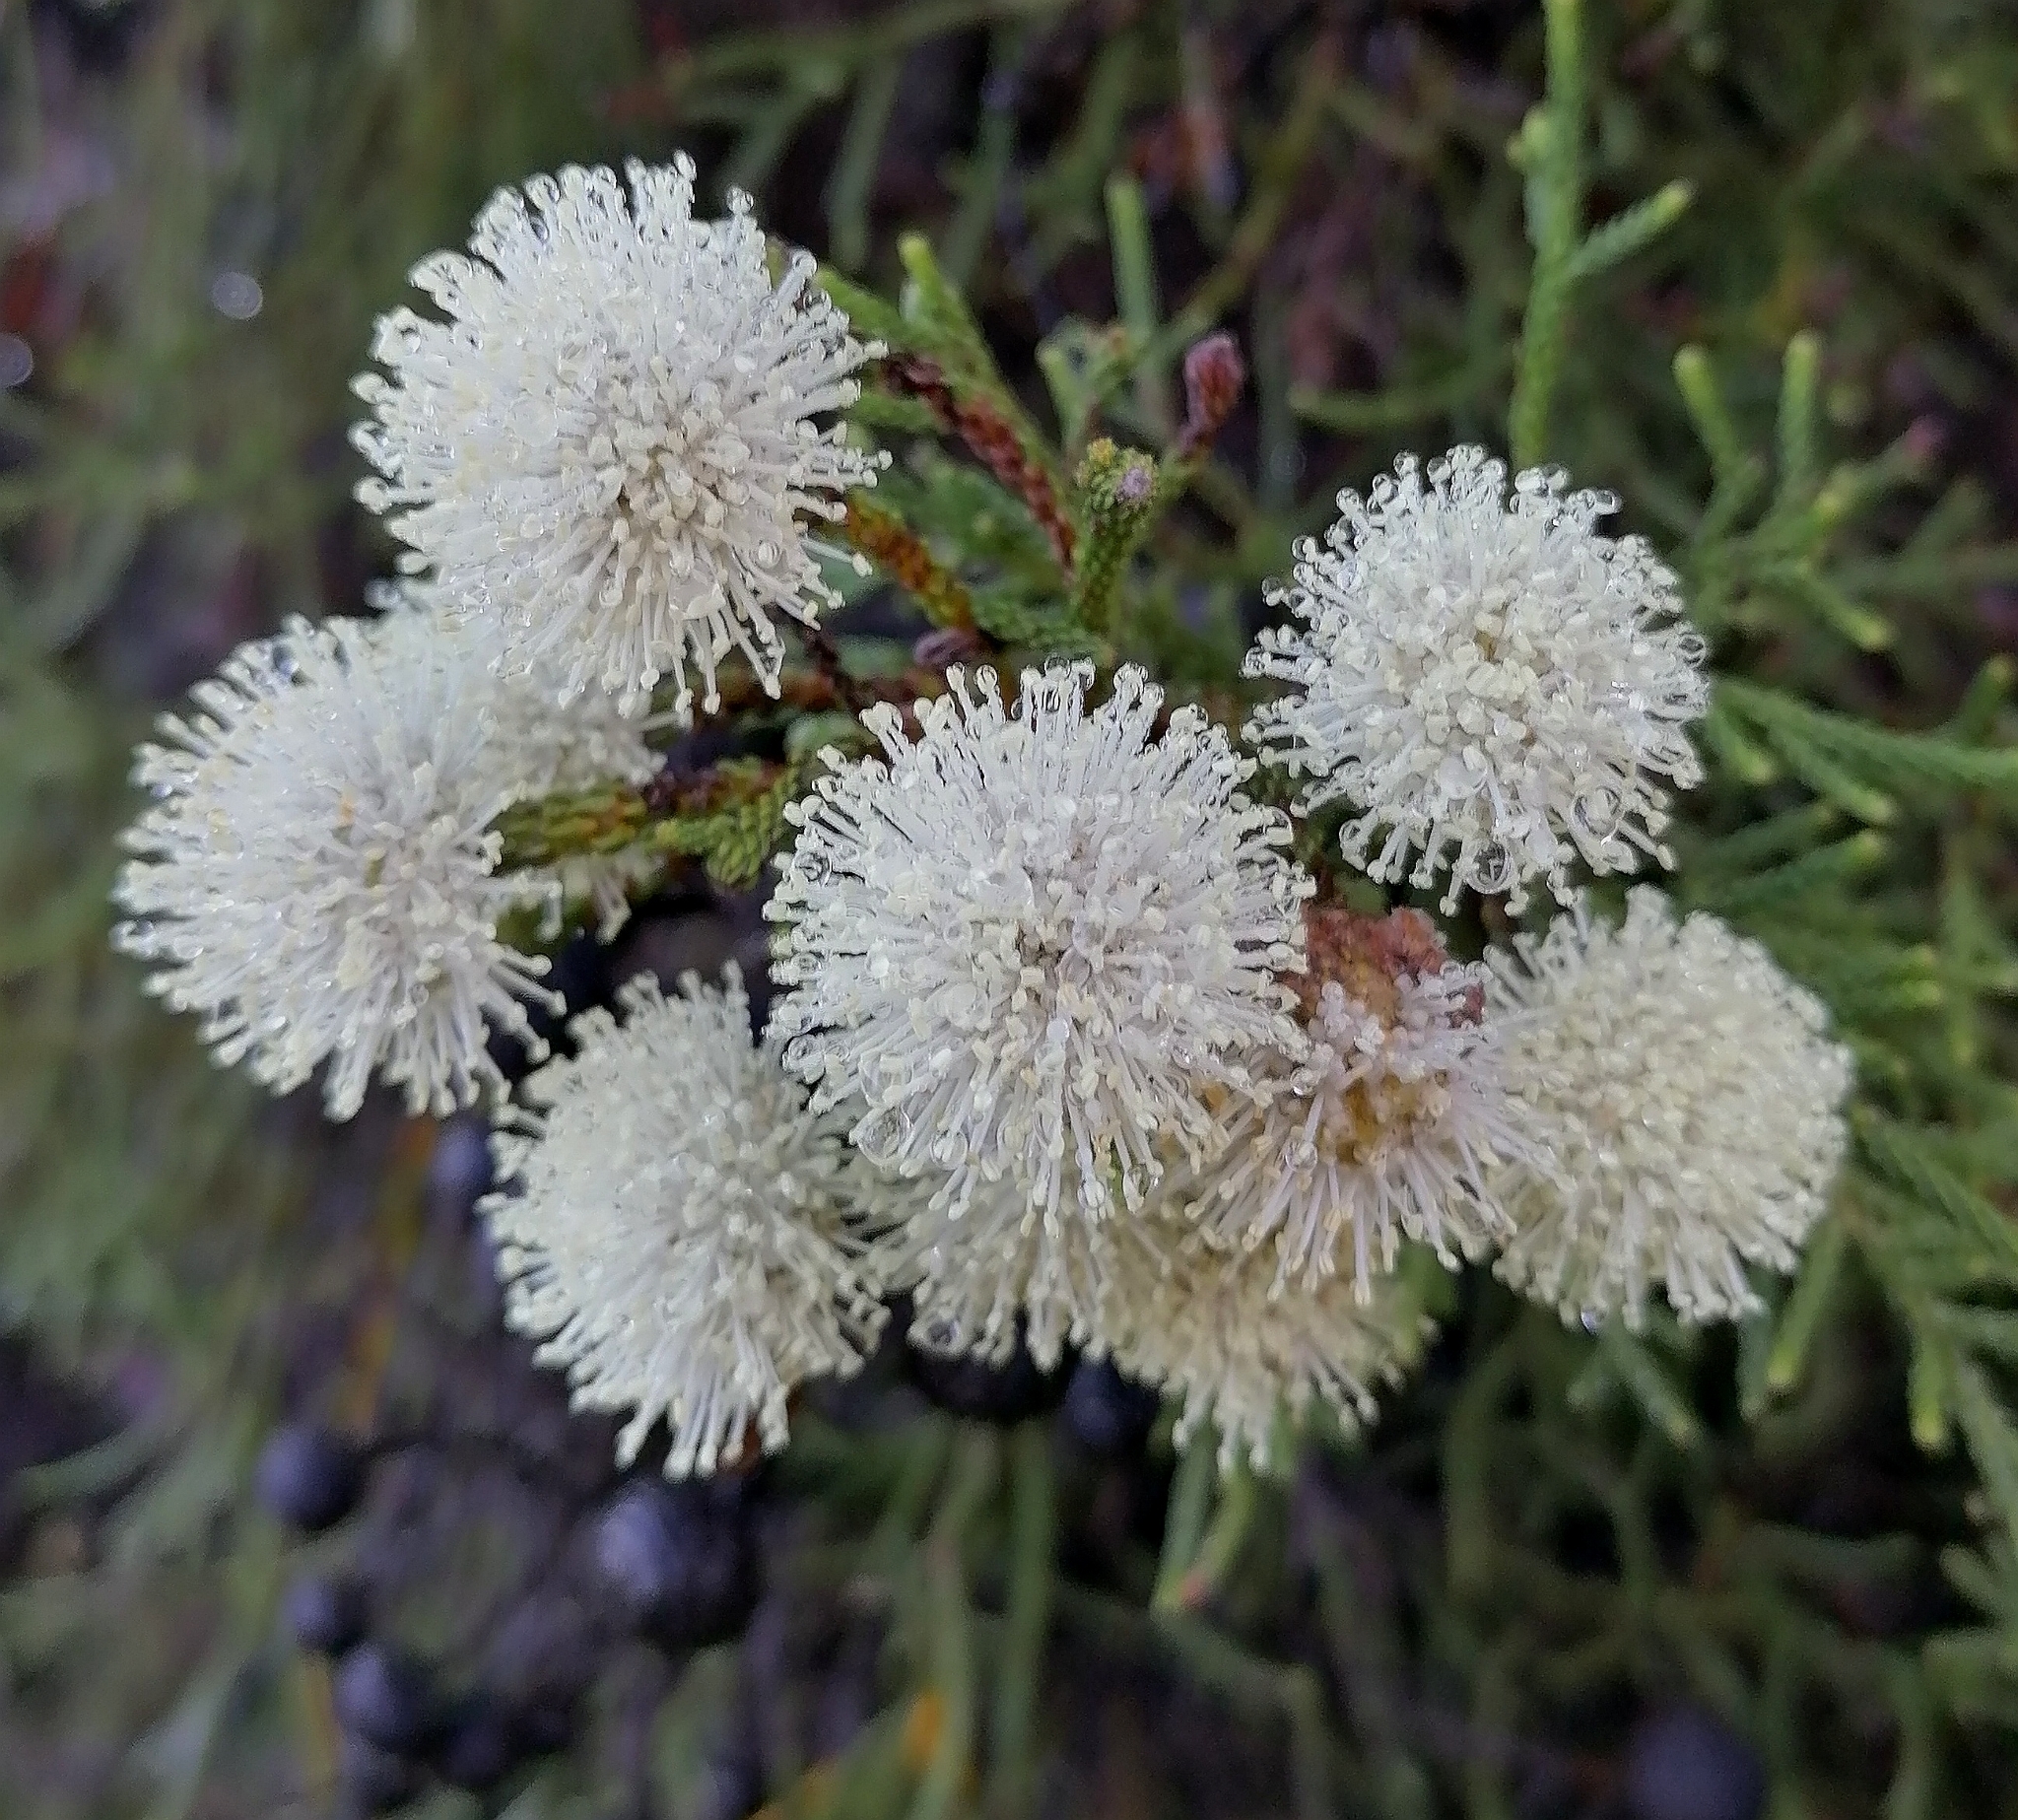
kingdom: Plantae
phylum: Tracheophyta
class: Magnoliopsida
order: Bruniales
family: Bruniaceae
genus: Brunia
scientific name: Brunia noduliflora
